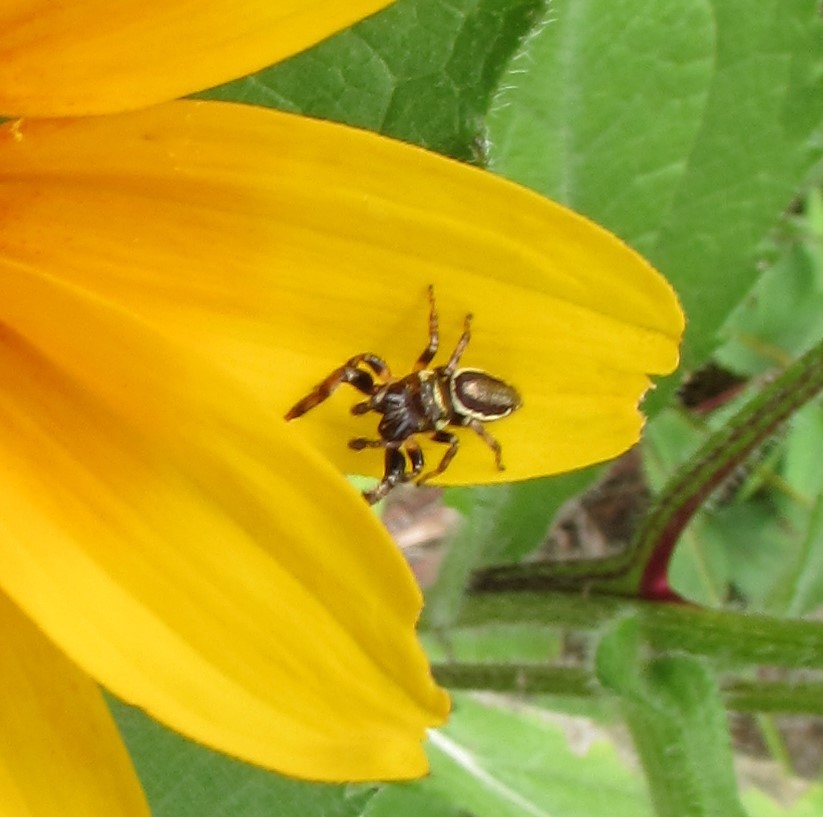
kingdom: Animalia
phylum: Arthropoda
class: Arachnida
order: Araneae
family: Salticidae
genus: Eris
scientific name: Eris militaris
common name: Bronze jumper
